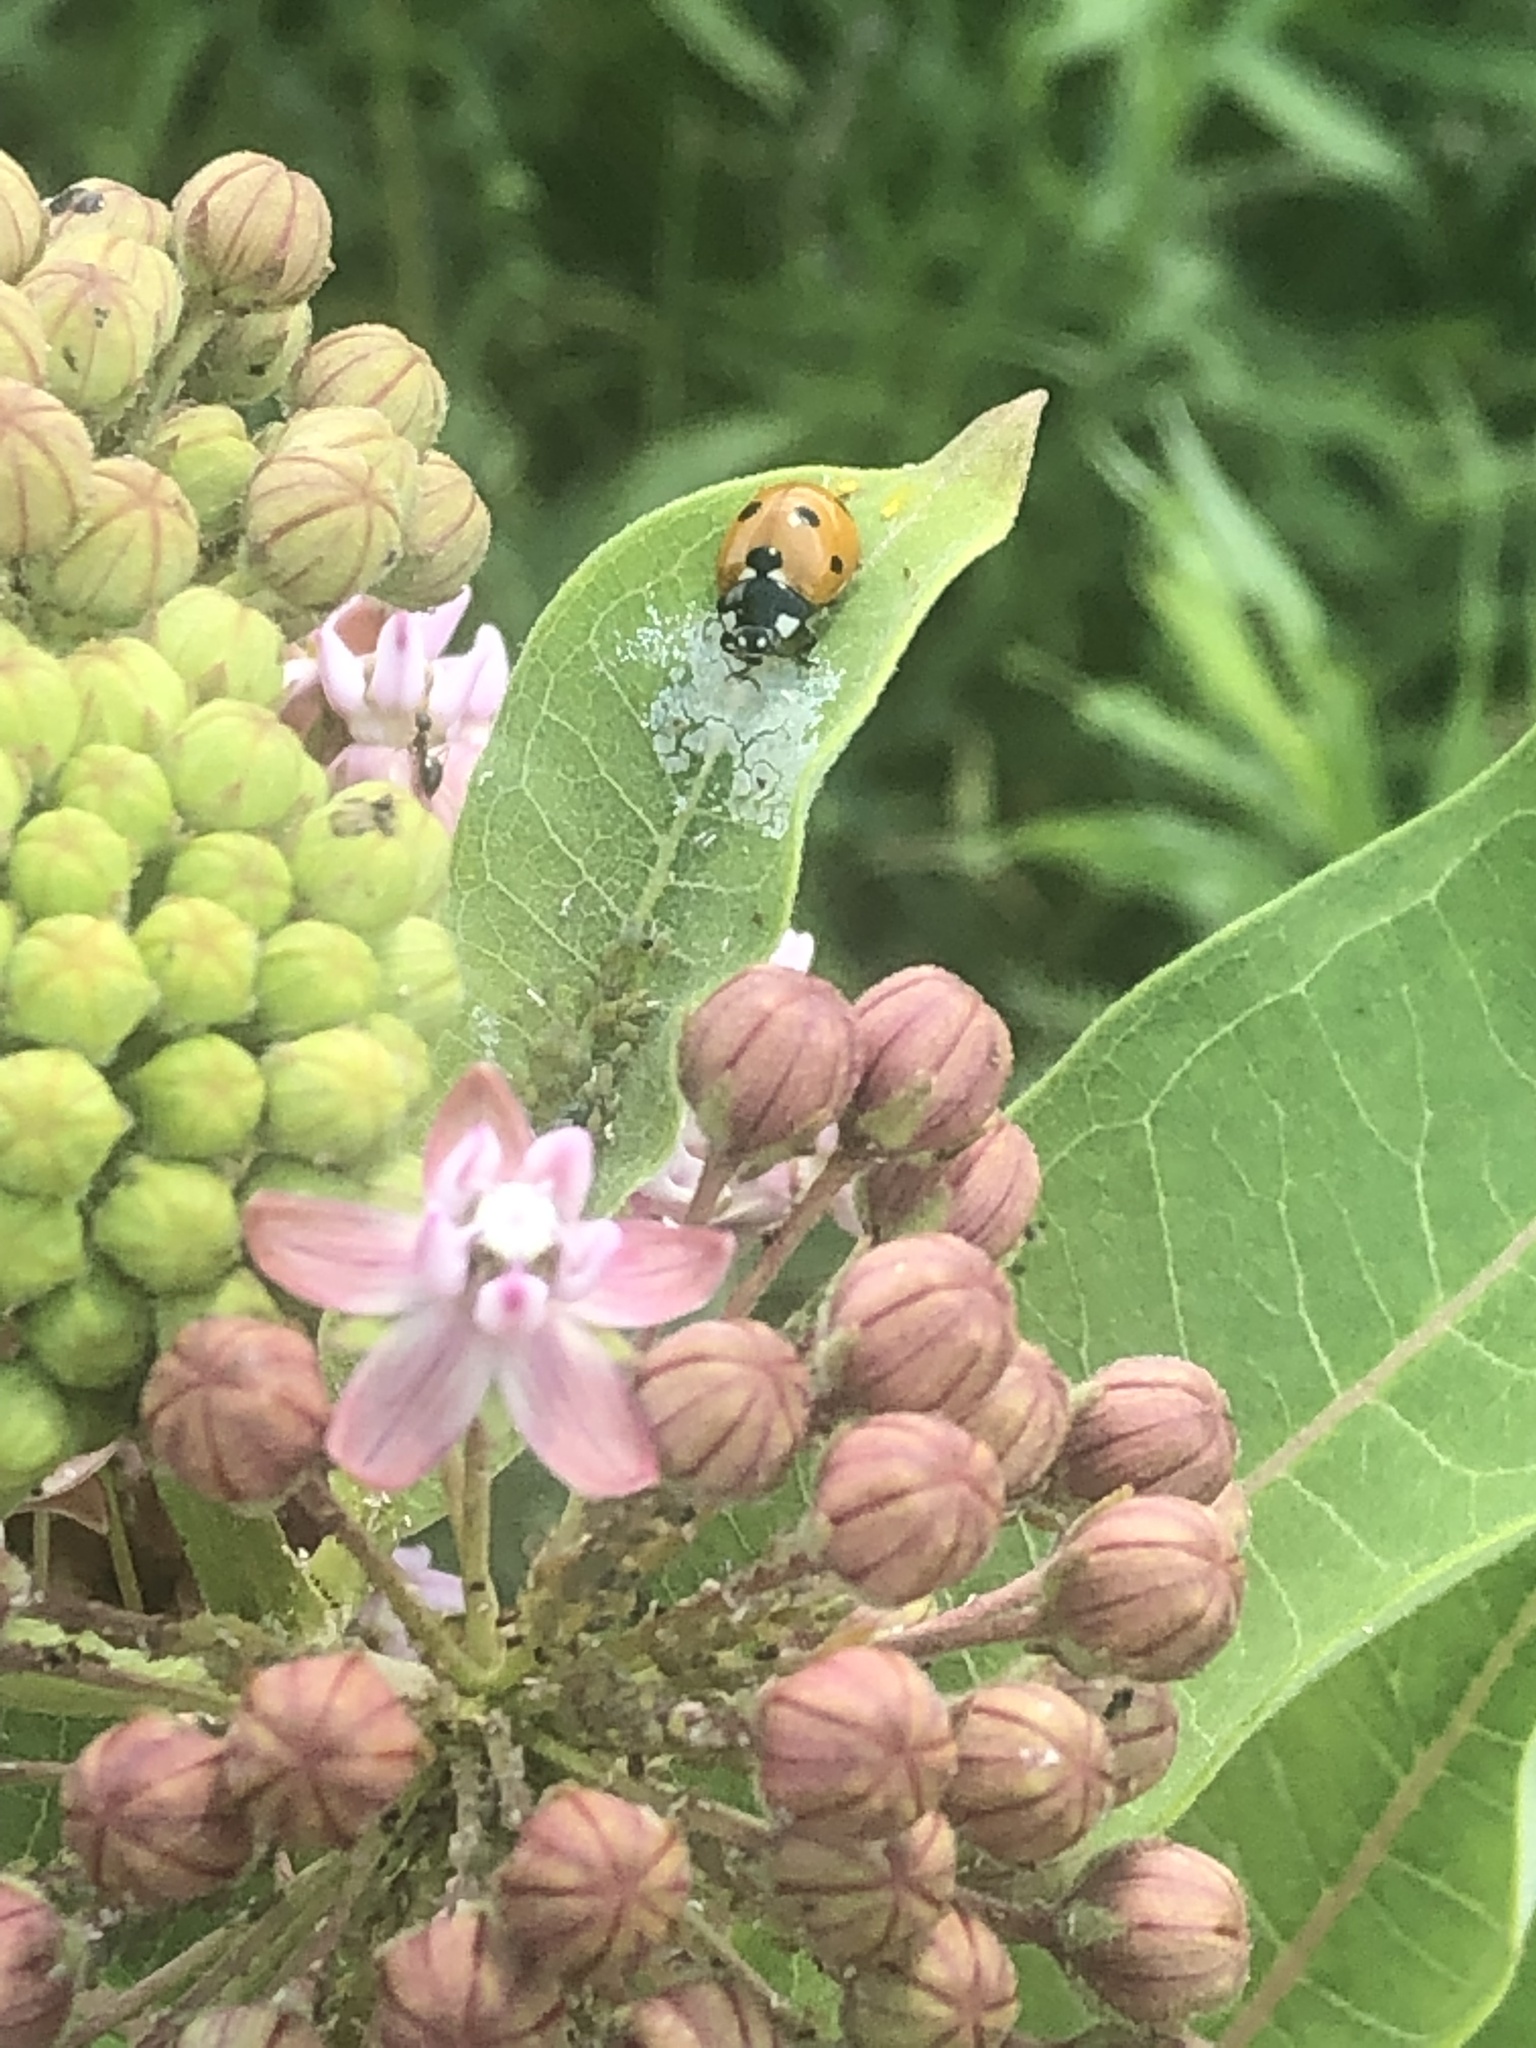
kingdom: Animalia
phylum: Arthropoda
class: Insecta
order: Coleoptera
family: Coccinellidae
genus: Coccinella
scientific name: Coccinella septempunctata
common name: Sevenspotted lady beetle
